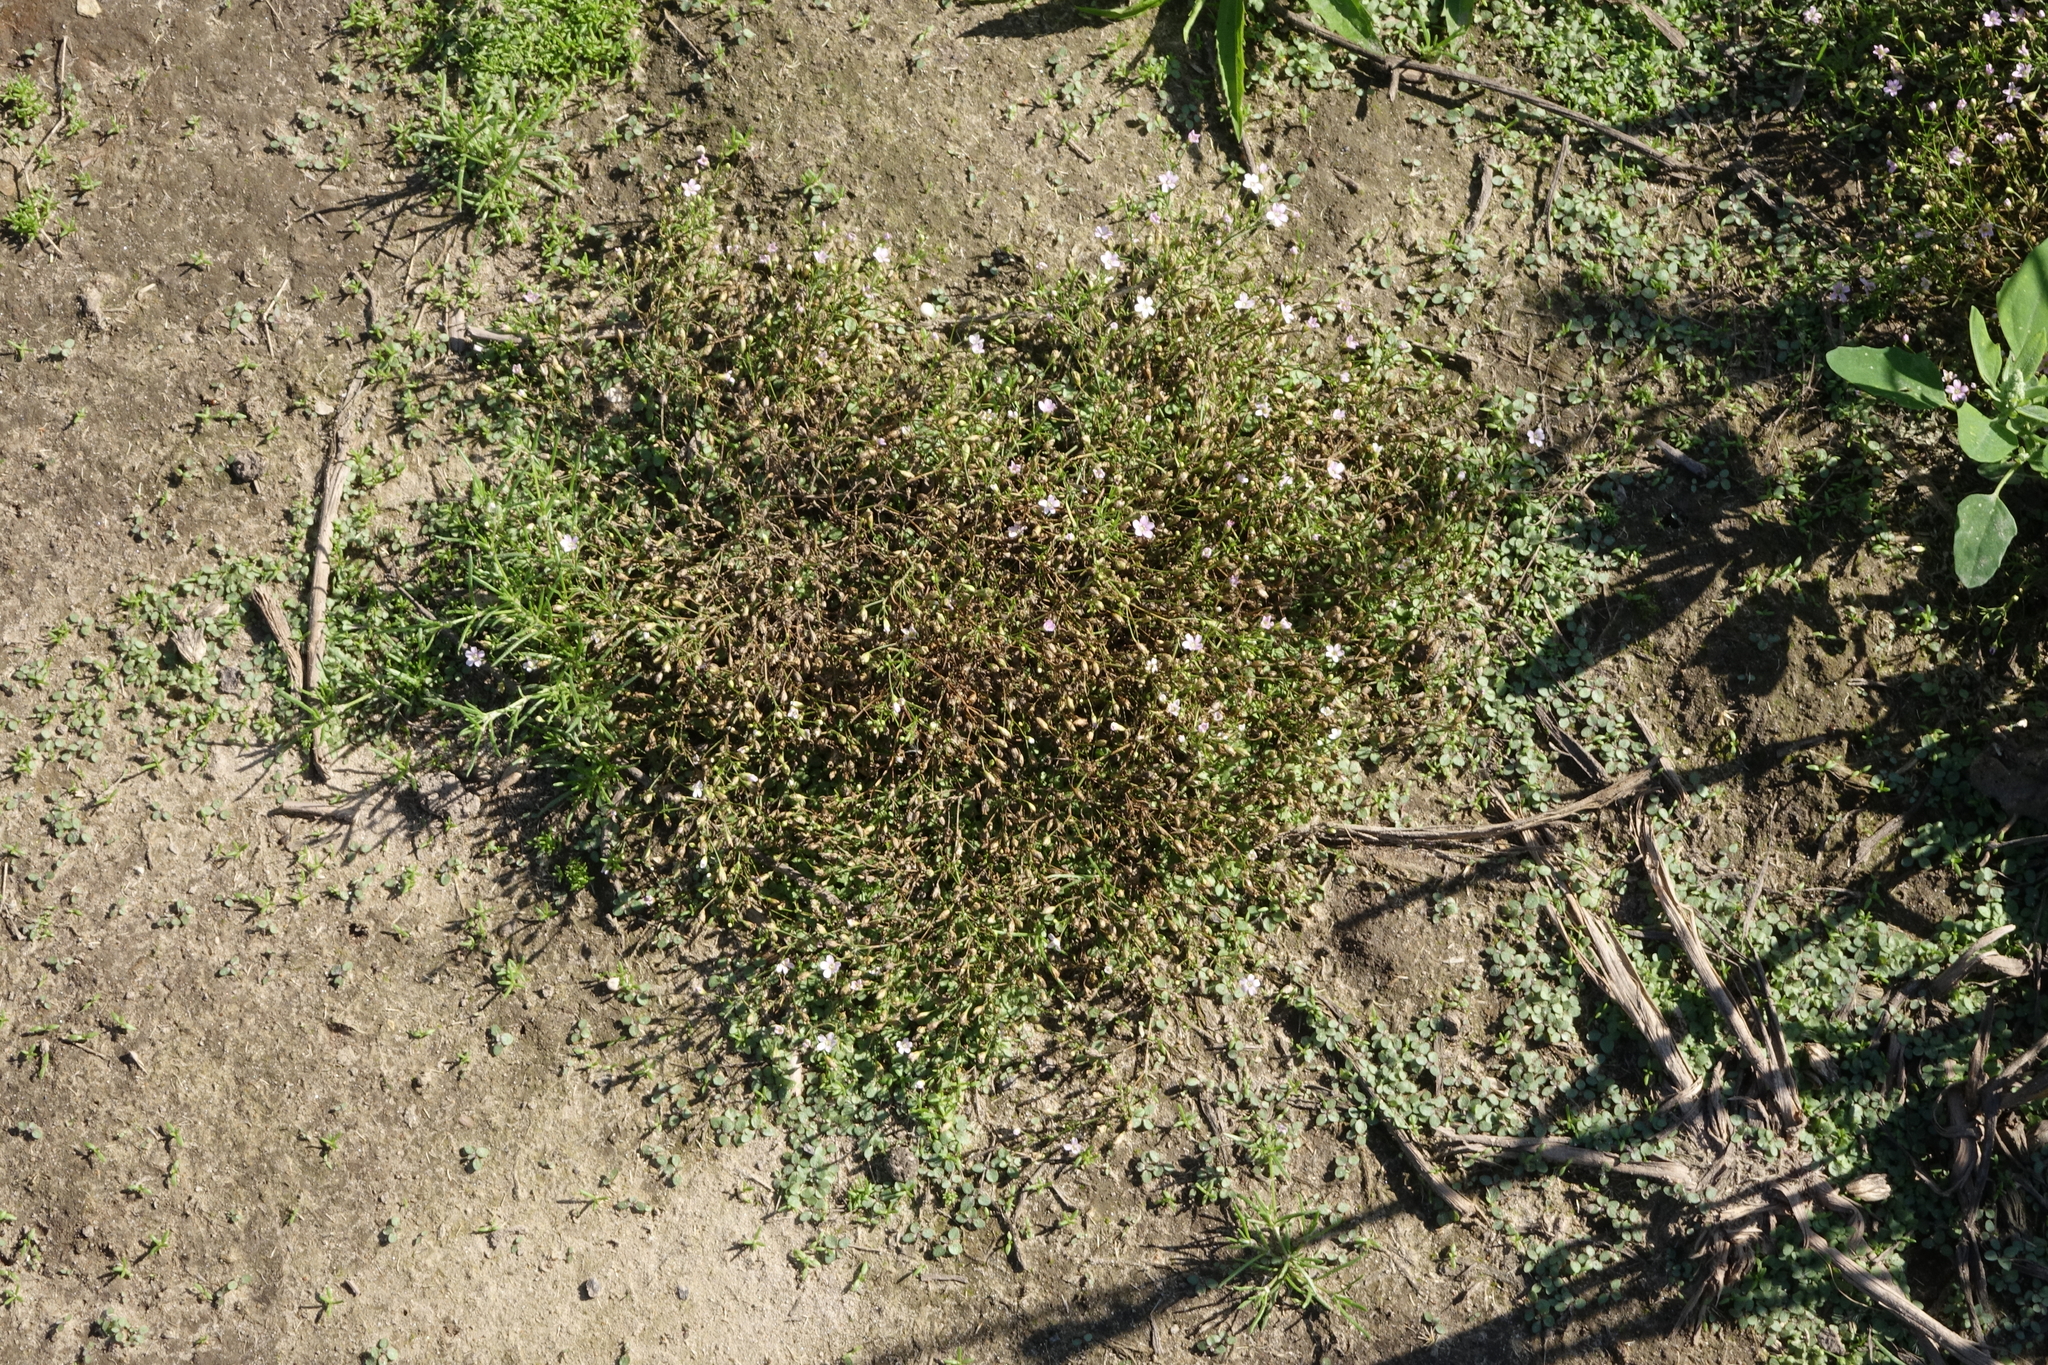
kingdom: Plantae
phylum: Tracheophyta
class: Magnoliopsida
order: Caryophyllales
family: Caryophyllaceae
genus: Psammophiliella
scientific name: Psammophiliella muralis
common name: Cushion baby's-breath
